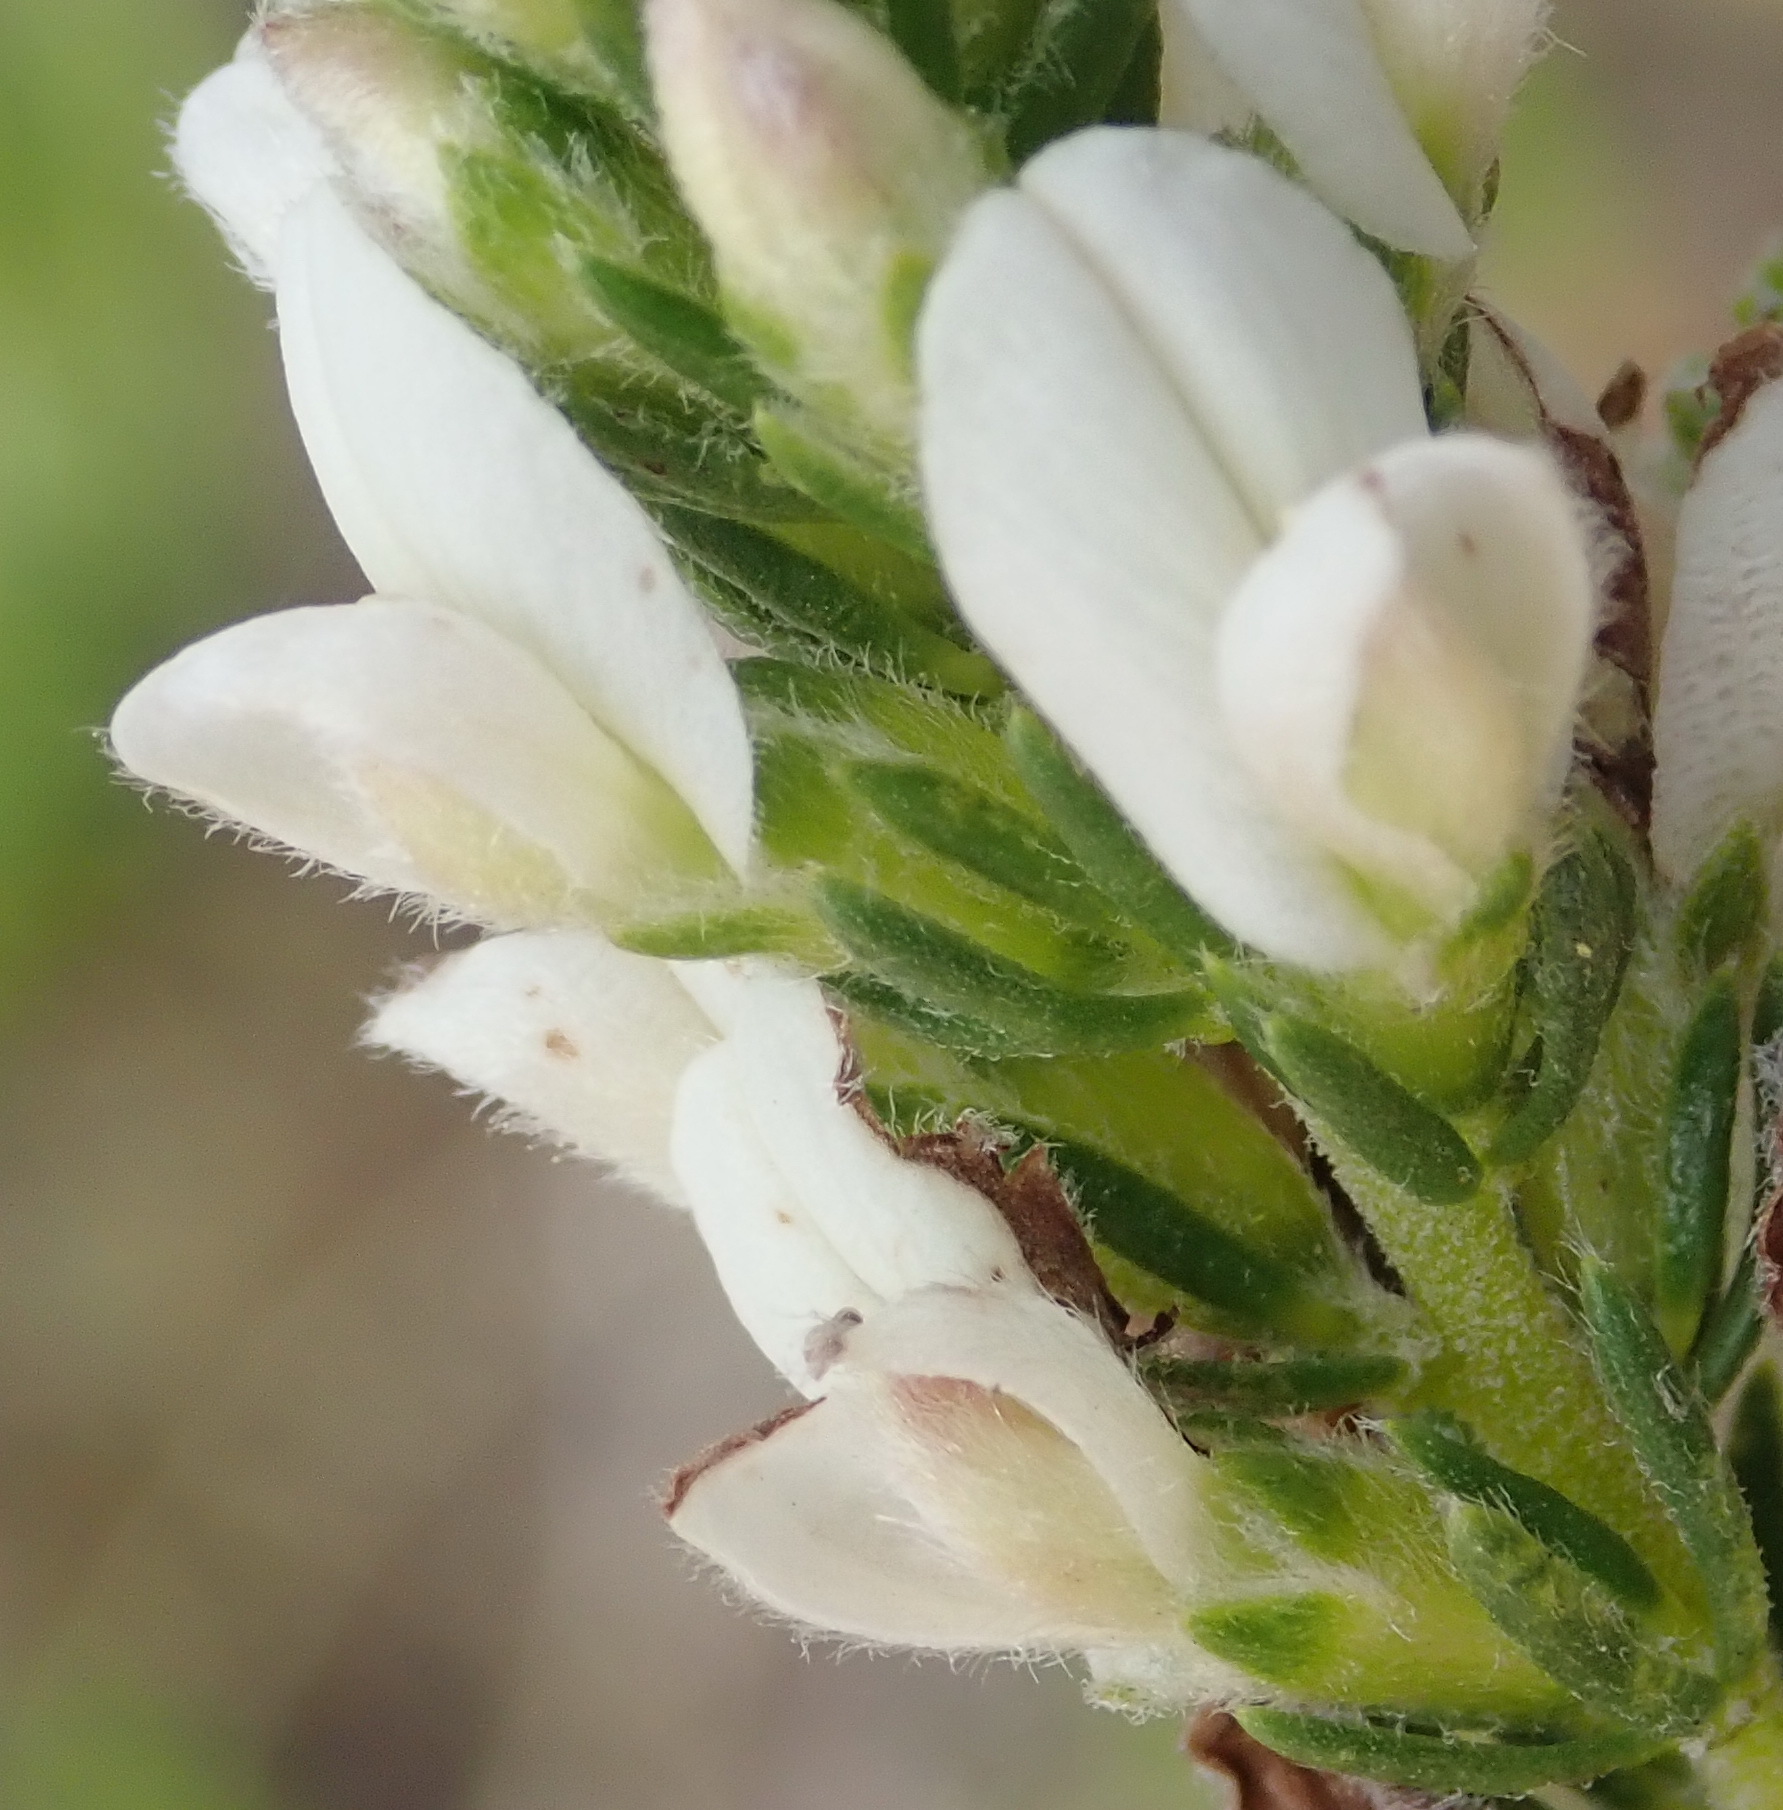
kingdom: Plantae
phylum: Tracheophyta
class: Magnoliopsida
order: Fabales
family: Fabaceae
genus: Aspalathus
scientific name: Aspalathus nigra
